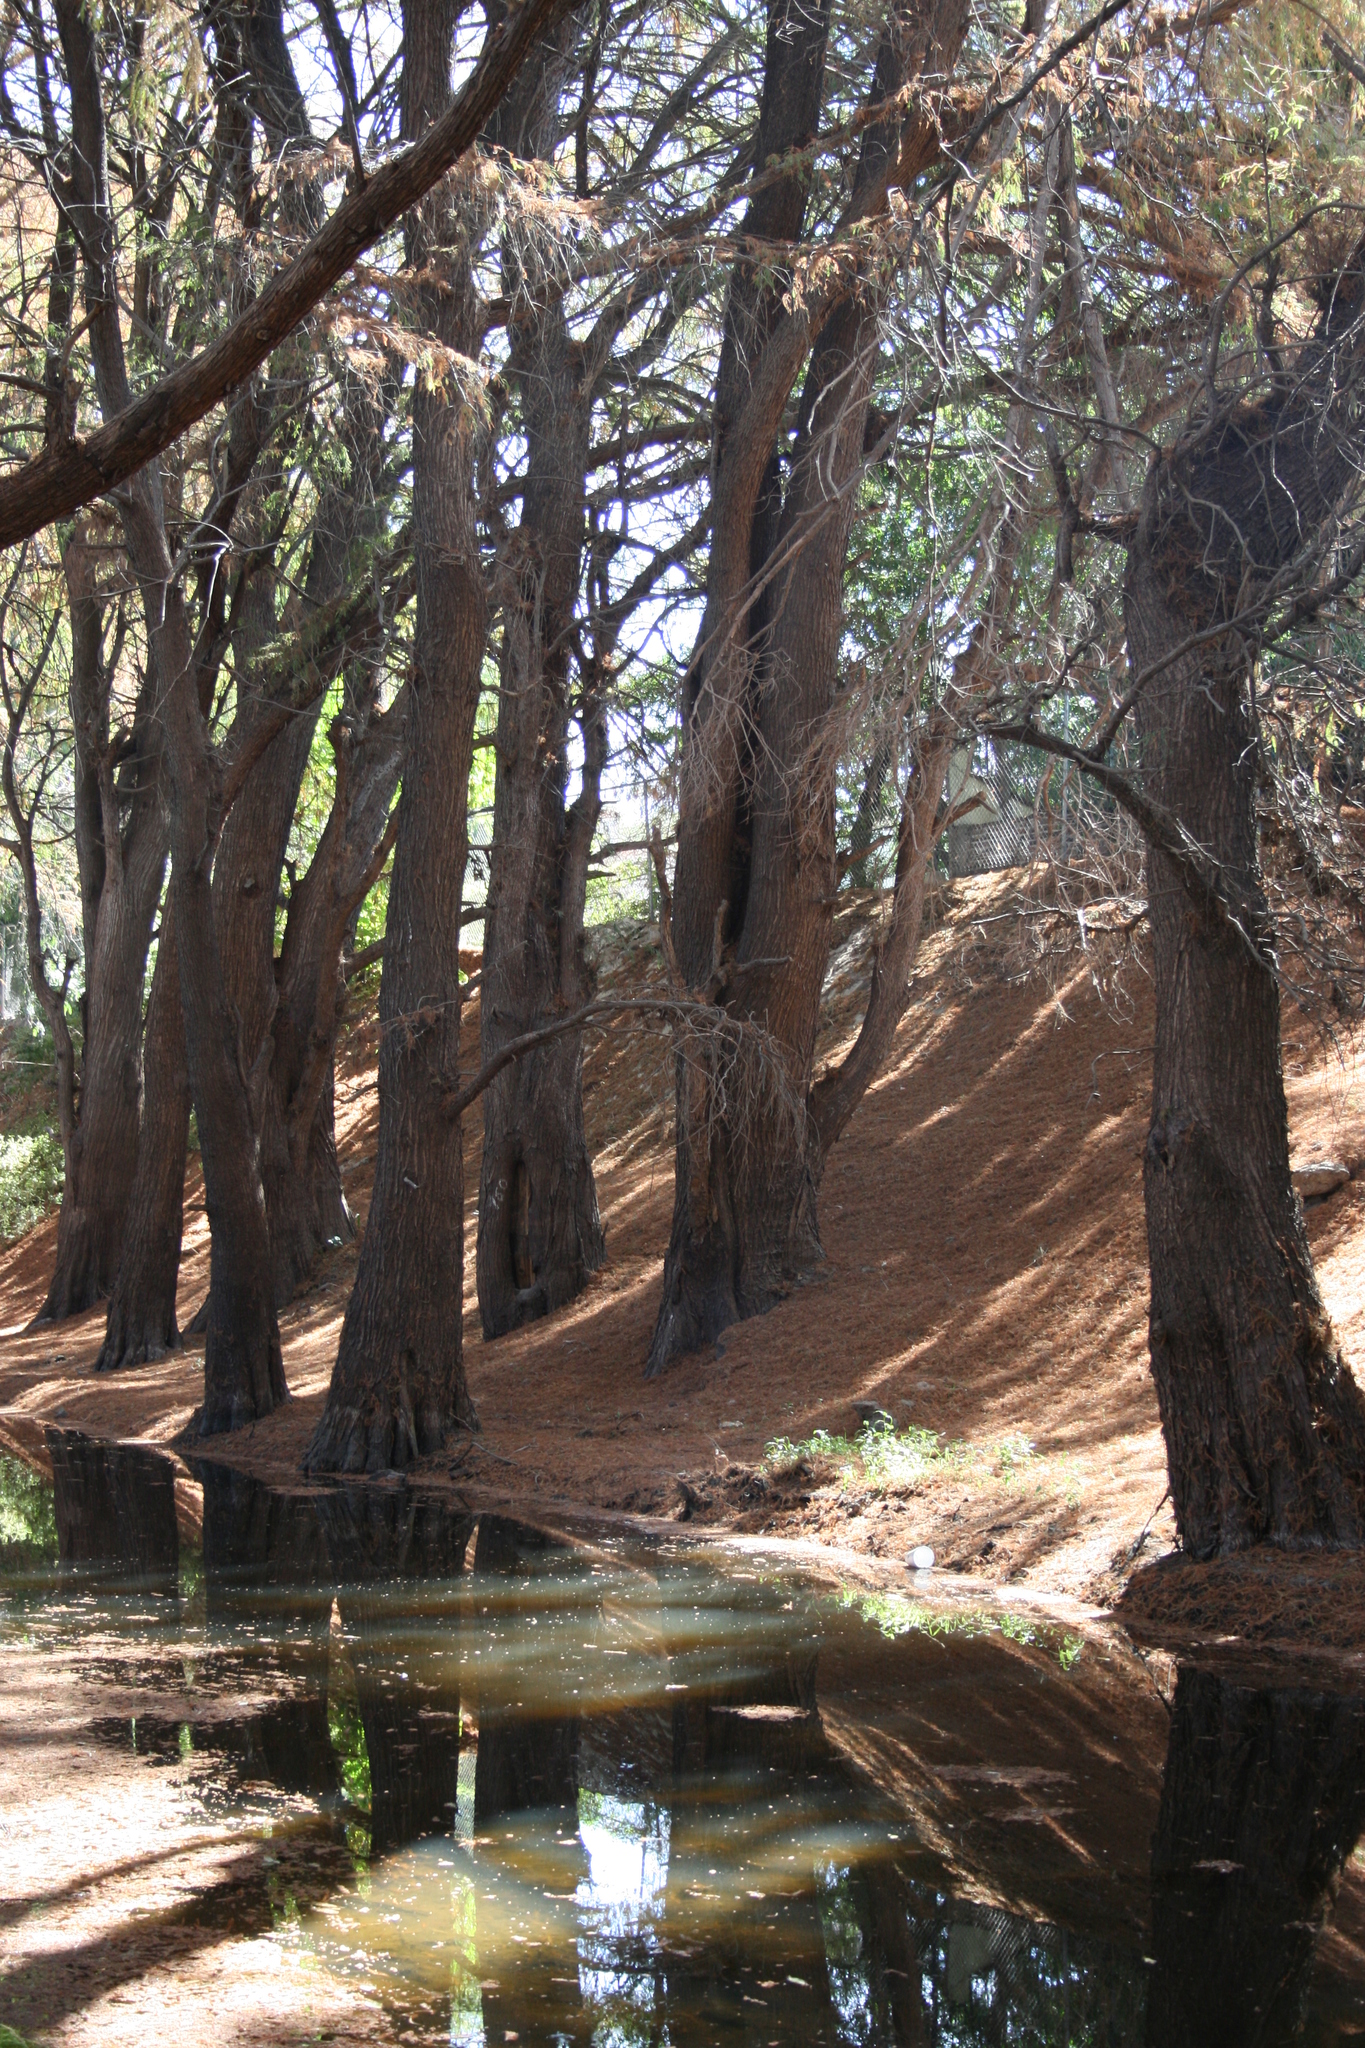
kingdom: Plantae
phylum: Tracheophyta
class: Pinopsida
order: Pinales
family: Cupressaceae
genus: Taxodium
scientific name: Taxodium mucronatum
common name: Montezume bald cypress
